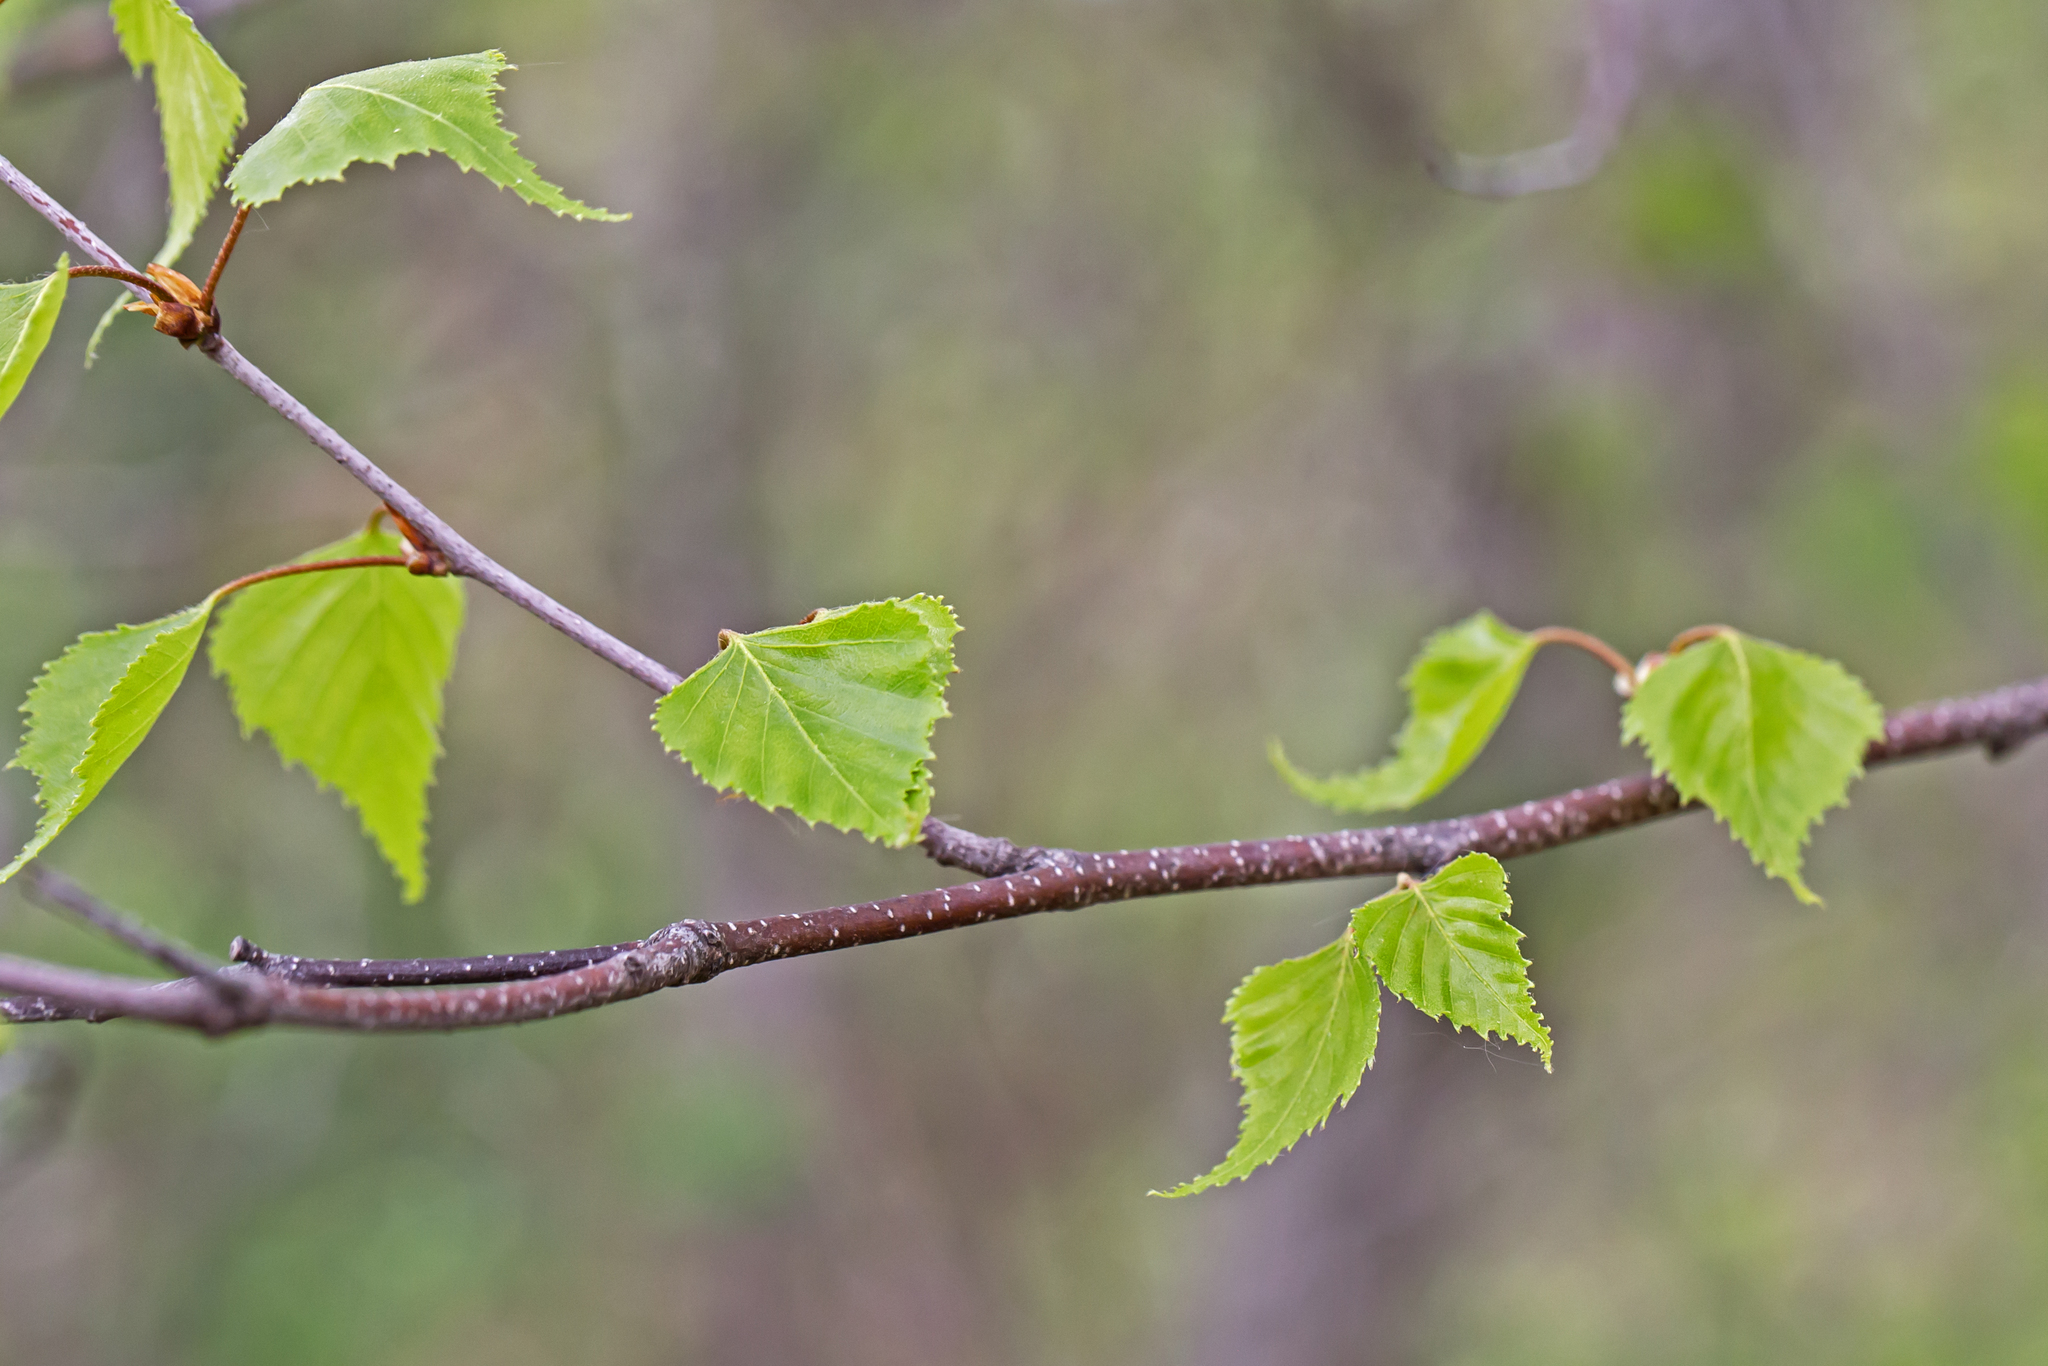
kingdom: Plantae
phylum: Tracheophyta
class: Magnoliopsida
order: Fagales
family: Betulaceae
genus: Betula
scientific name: Betula populifolia
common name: Fire birch
